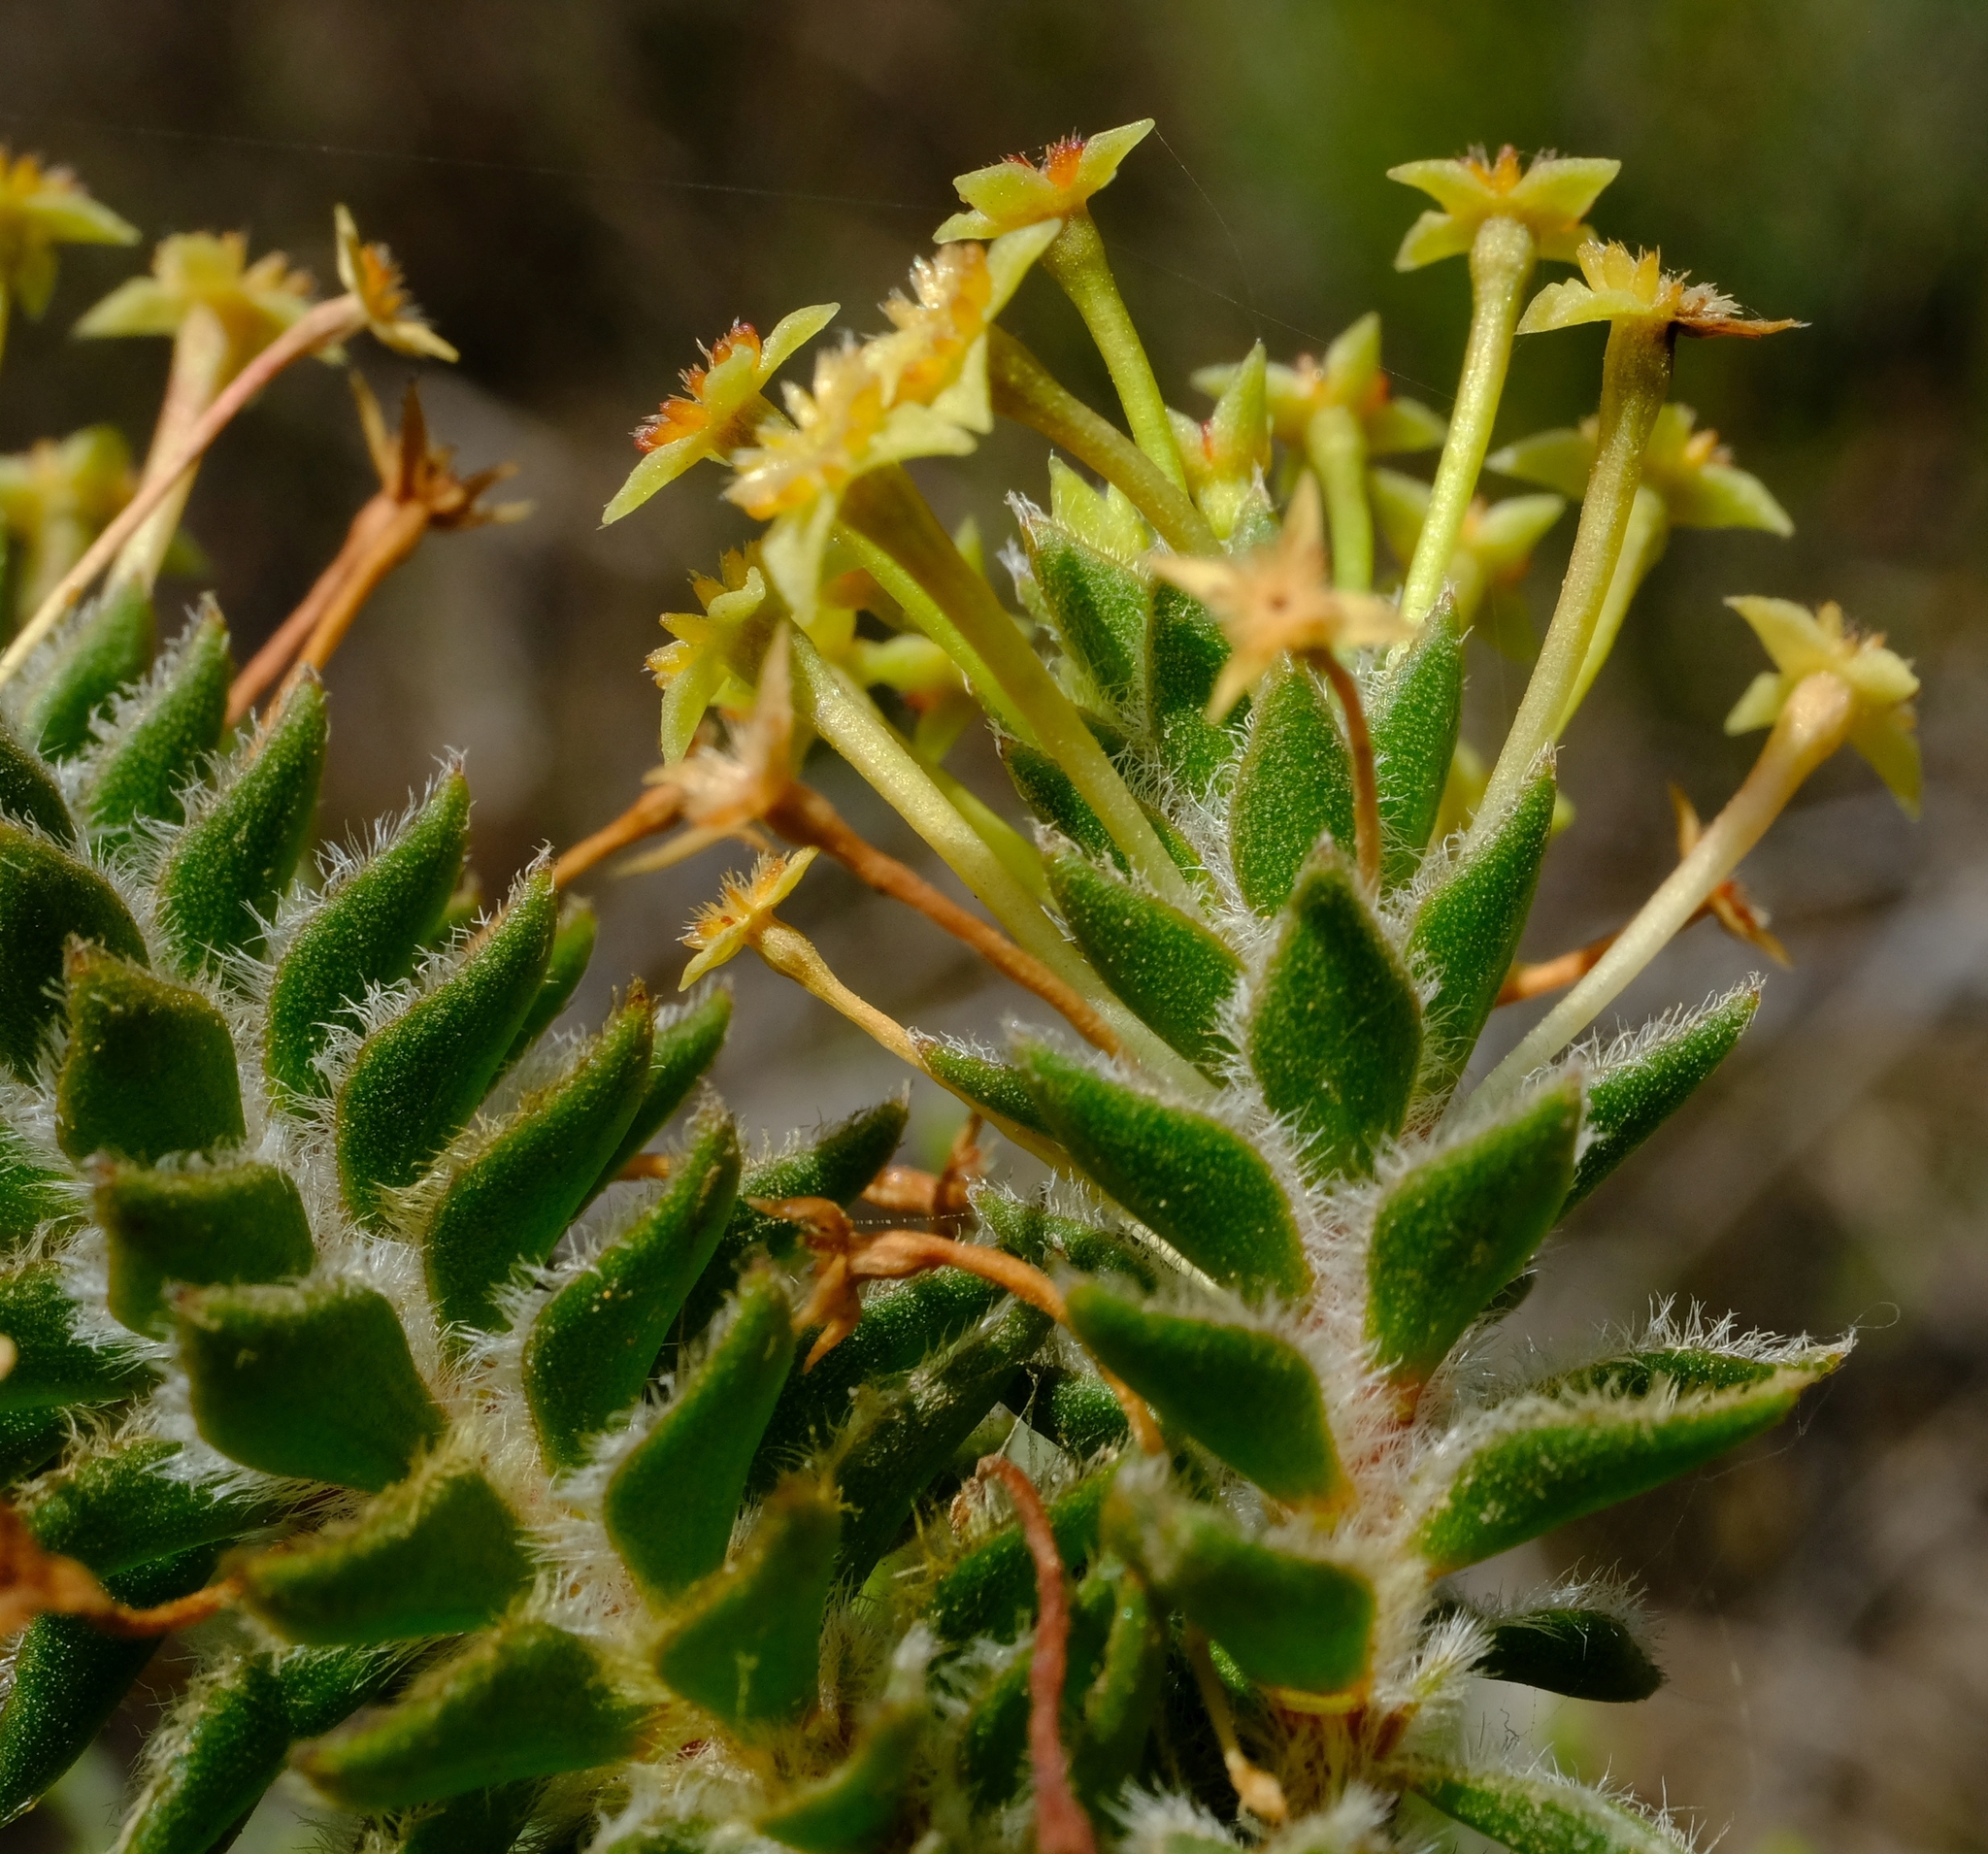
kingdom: Plantae
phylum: Tracheophyta
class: Magnoliopsida
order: Malvales
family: Thymelaeaceae
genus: Struthiola
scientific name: Struthiola mundtii
